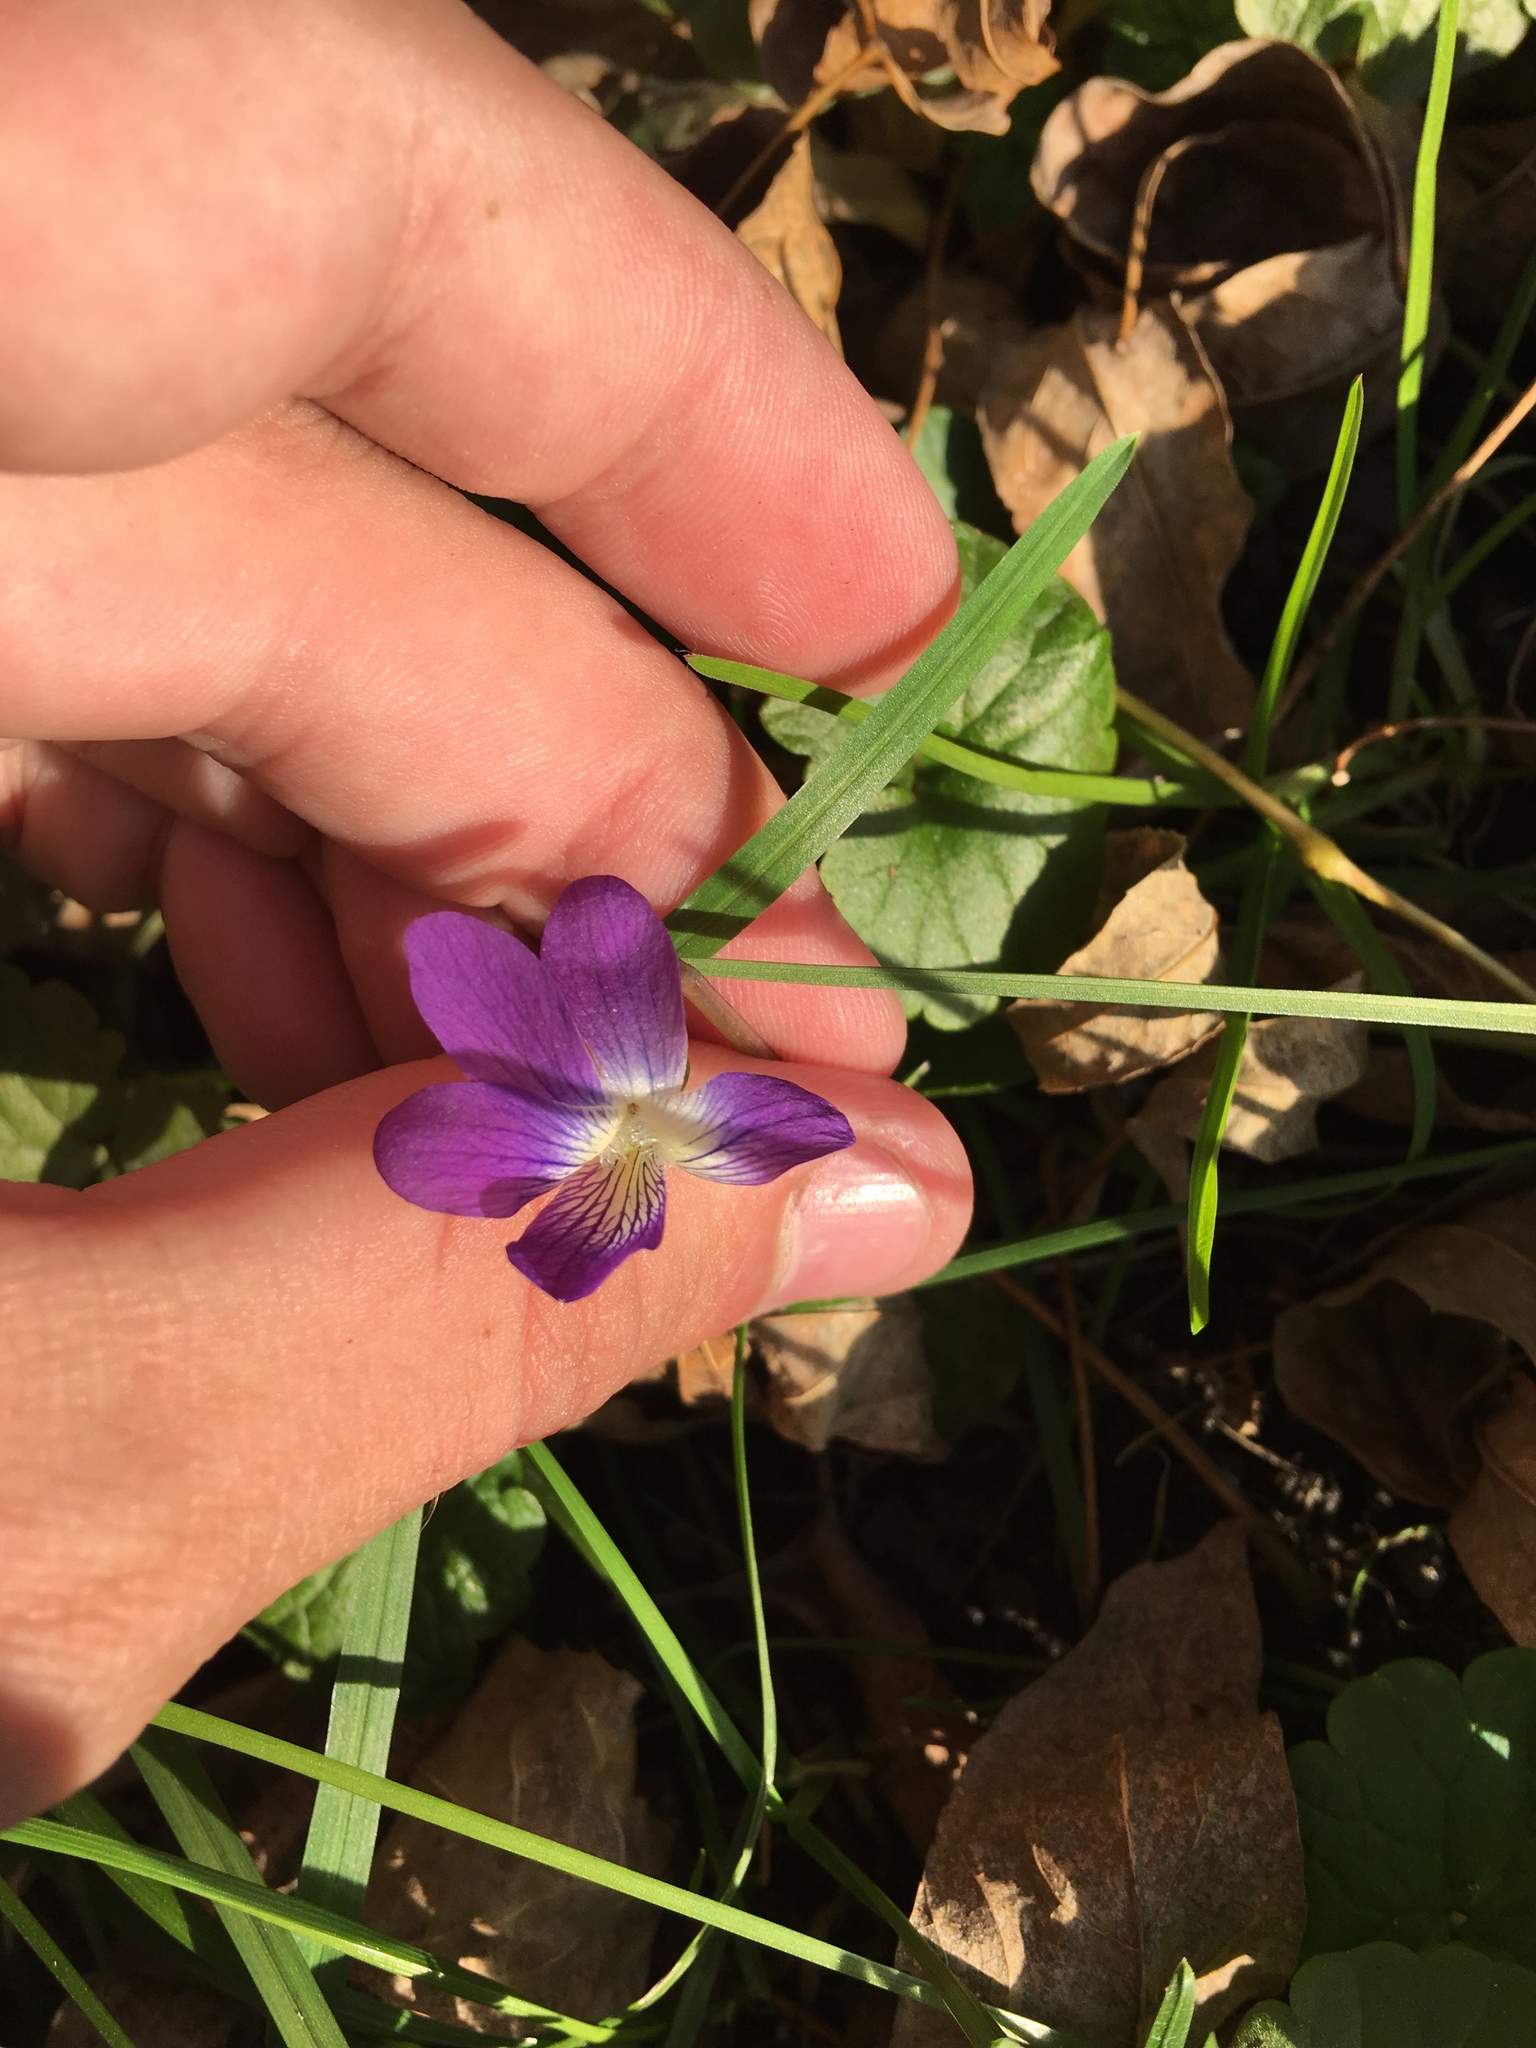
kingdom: Plantae
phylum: Tracheophyta
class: Magnoliopsida
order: Malpighiales
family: Violaceae
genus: Viola
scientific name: Viola sororia
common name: Dooryard violet
